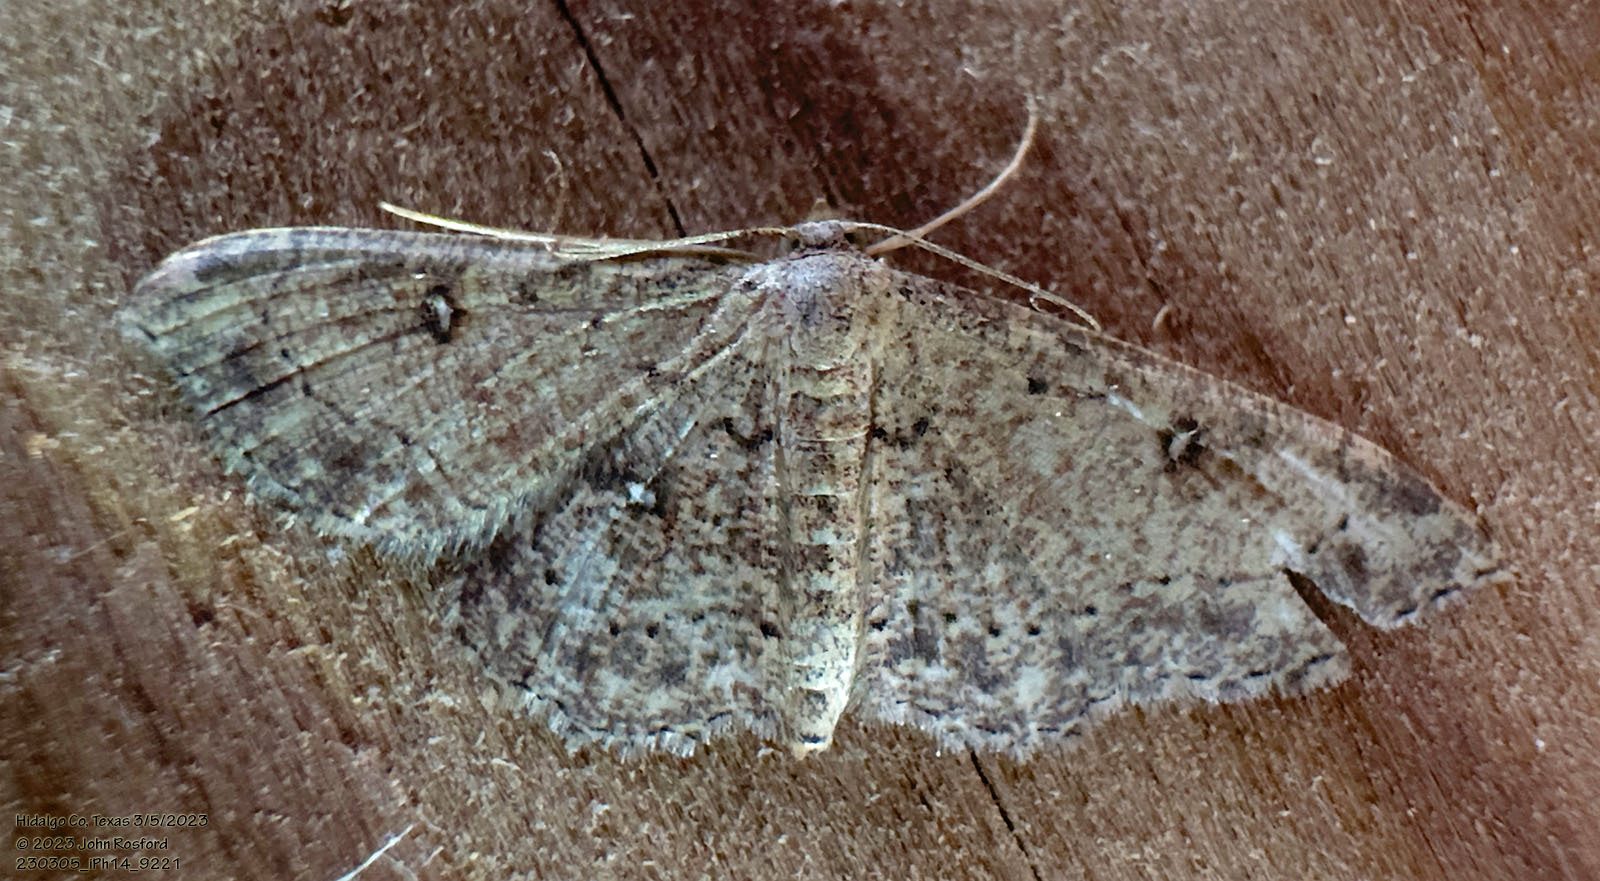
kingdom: Animalia
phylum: Arthropoda
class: Insecta
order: Lepidoptera
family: Geometridae
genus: Cyclophora
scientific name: Cyclophora nanaria
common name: Cankerworm
